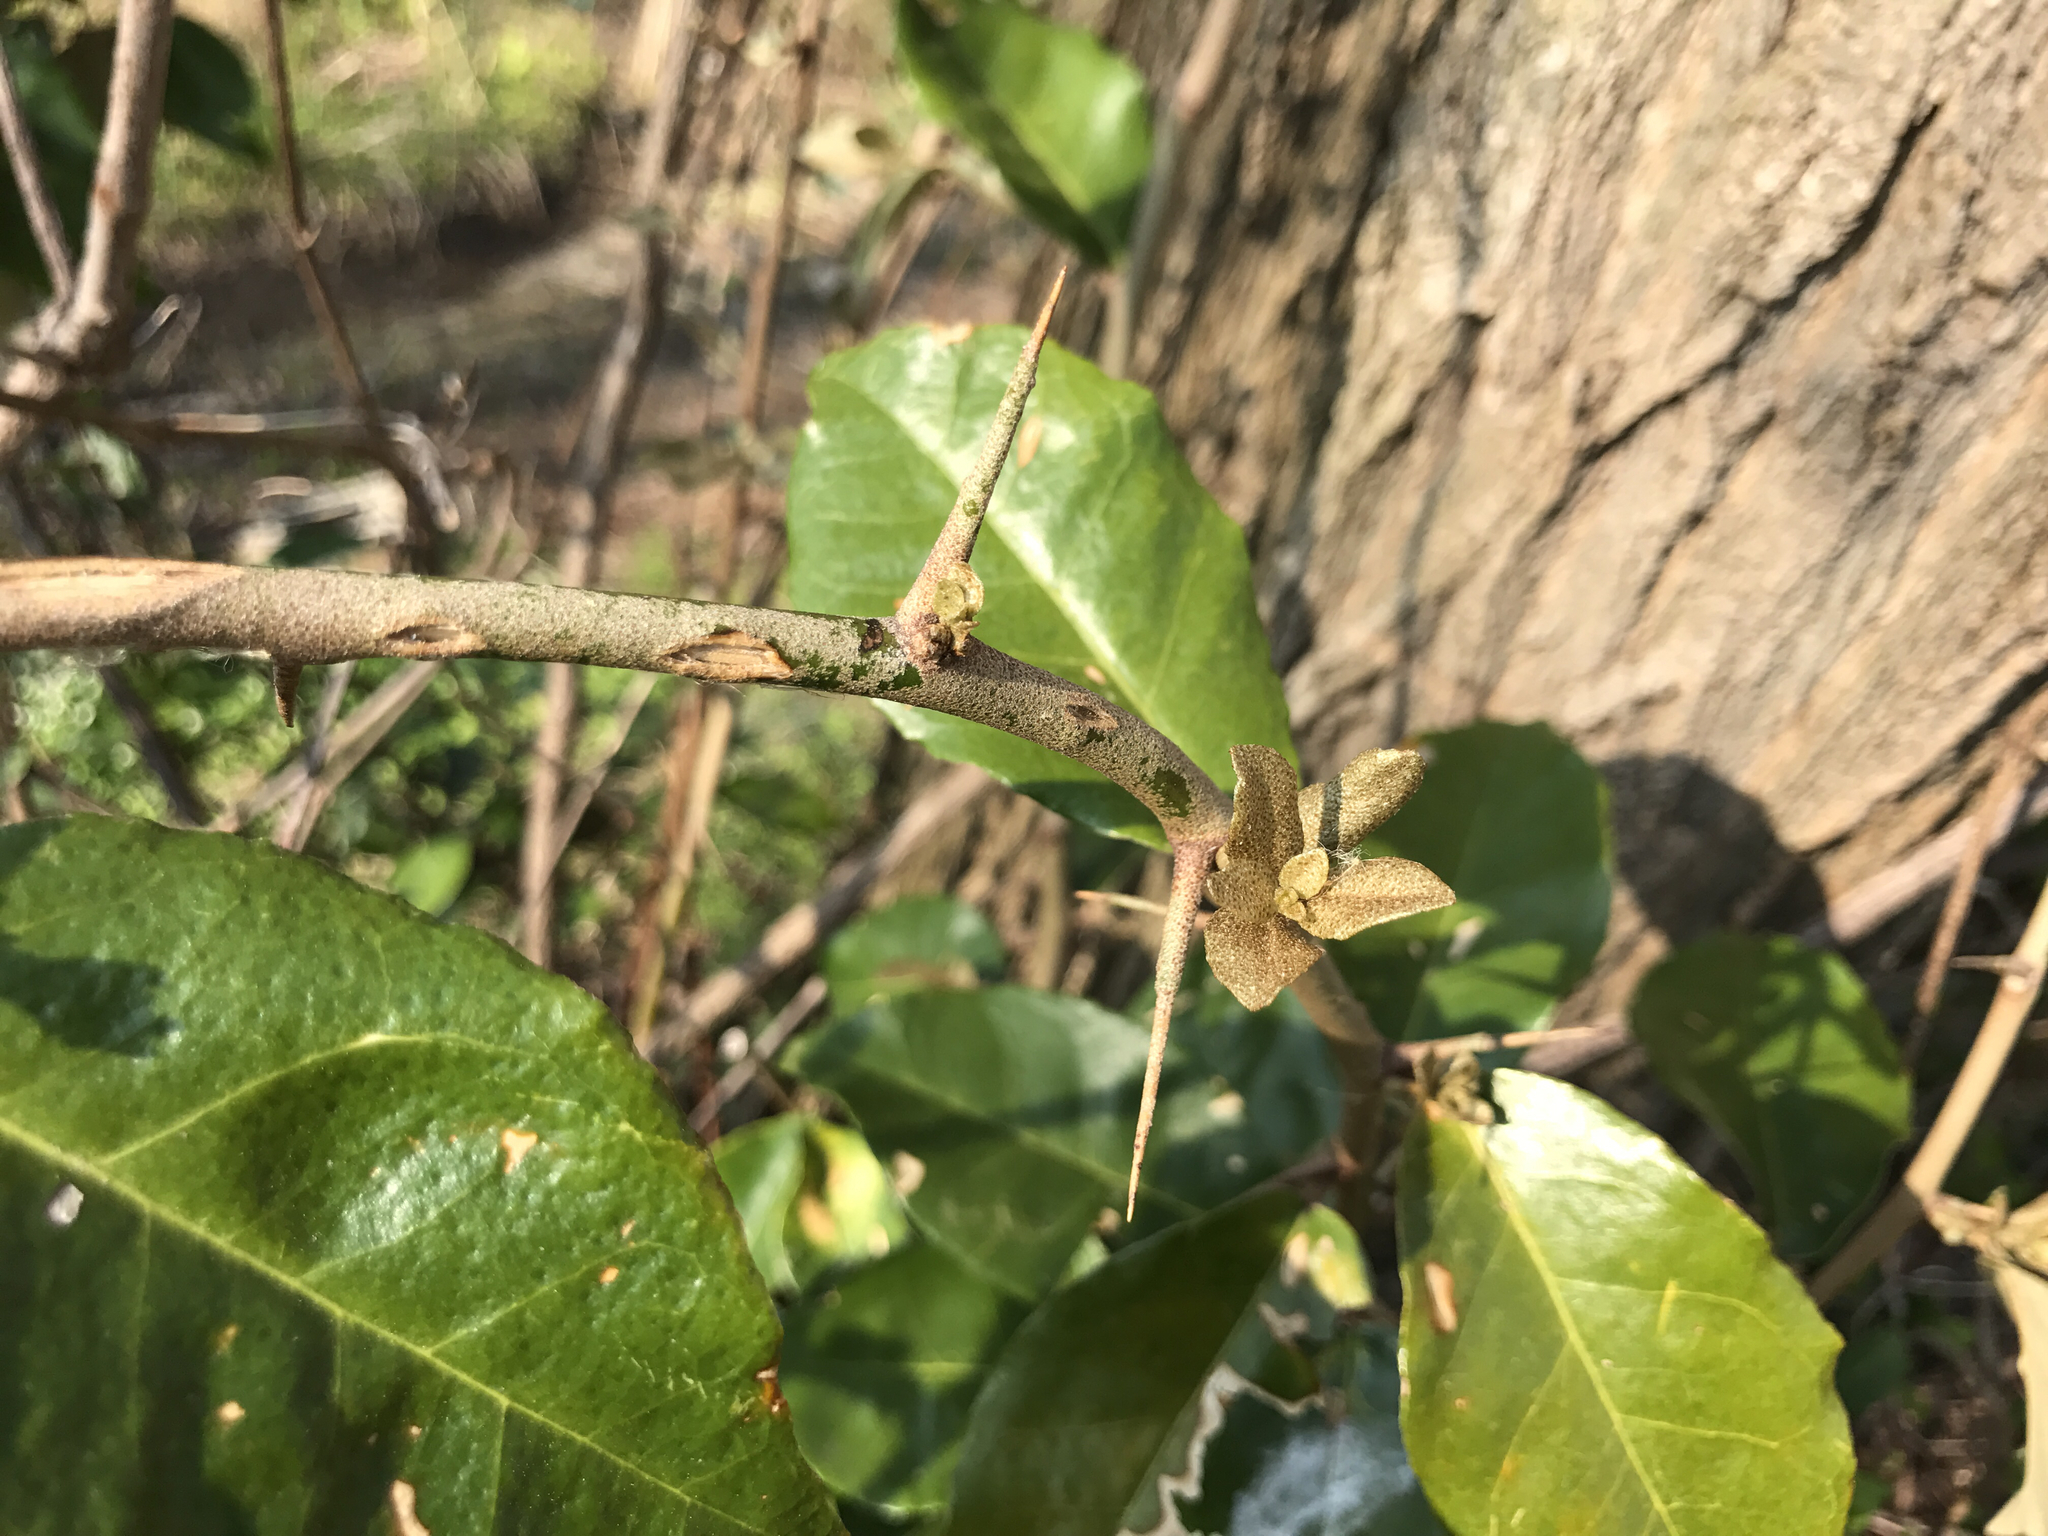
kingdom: Plantae
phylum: Tracheophyta
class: Magnoliopsida
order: Rosales
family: Elaeagnaceae
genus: Elaeagnus
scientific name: Elaeagnus pungens
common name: Spiny oleaster
